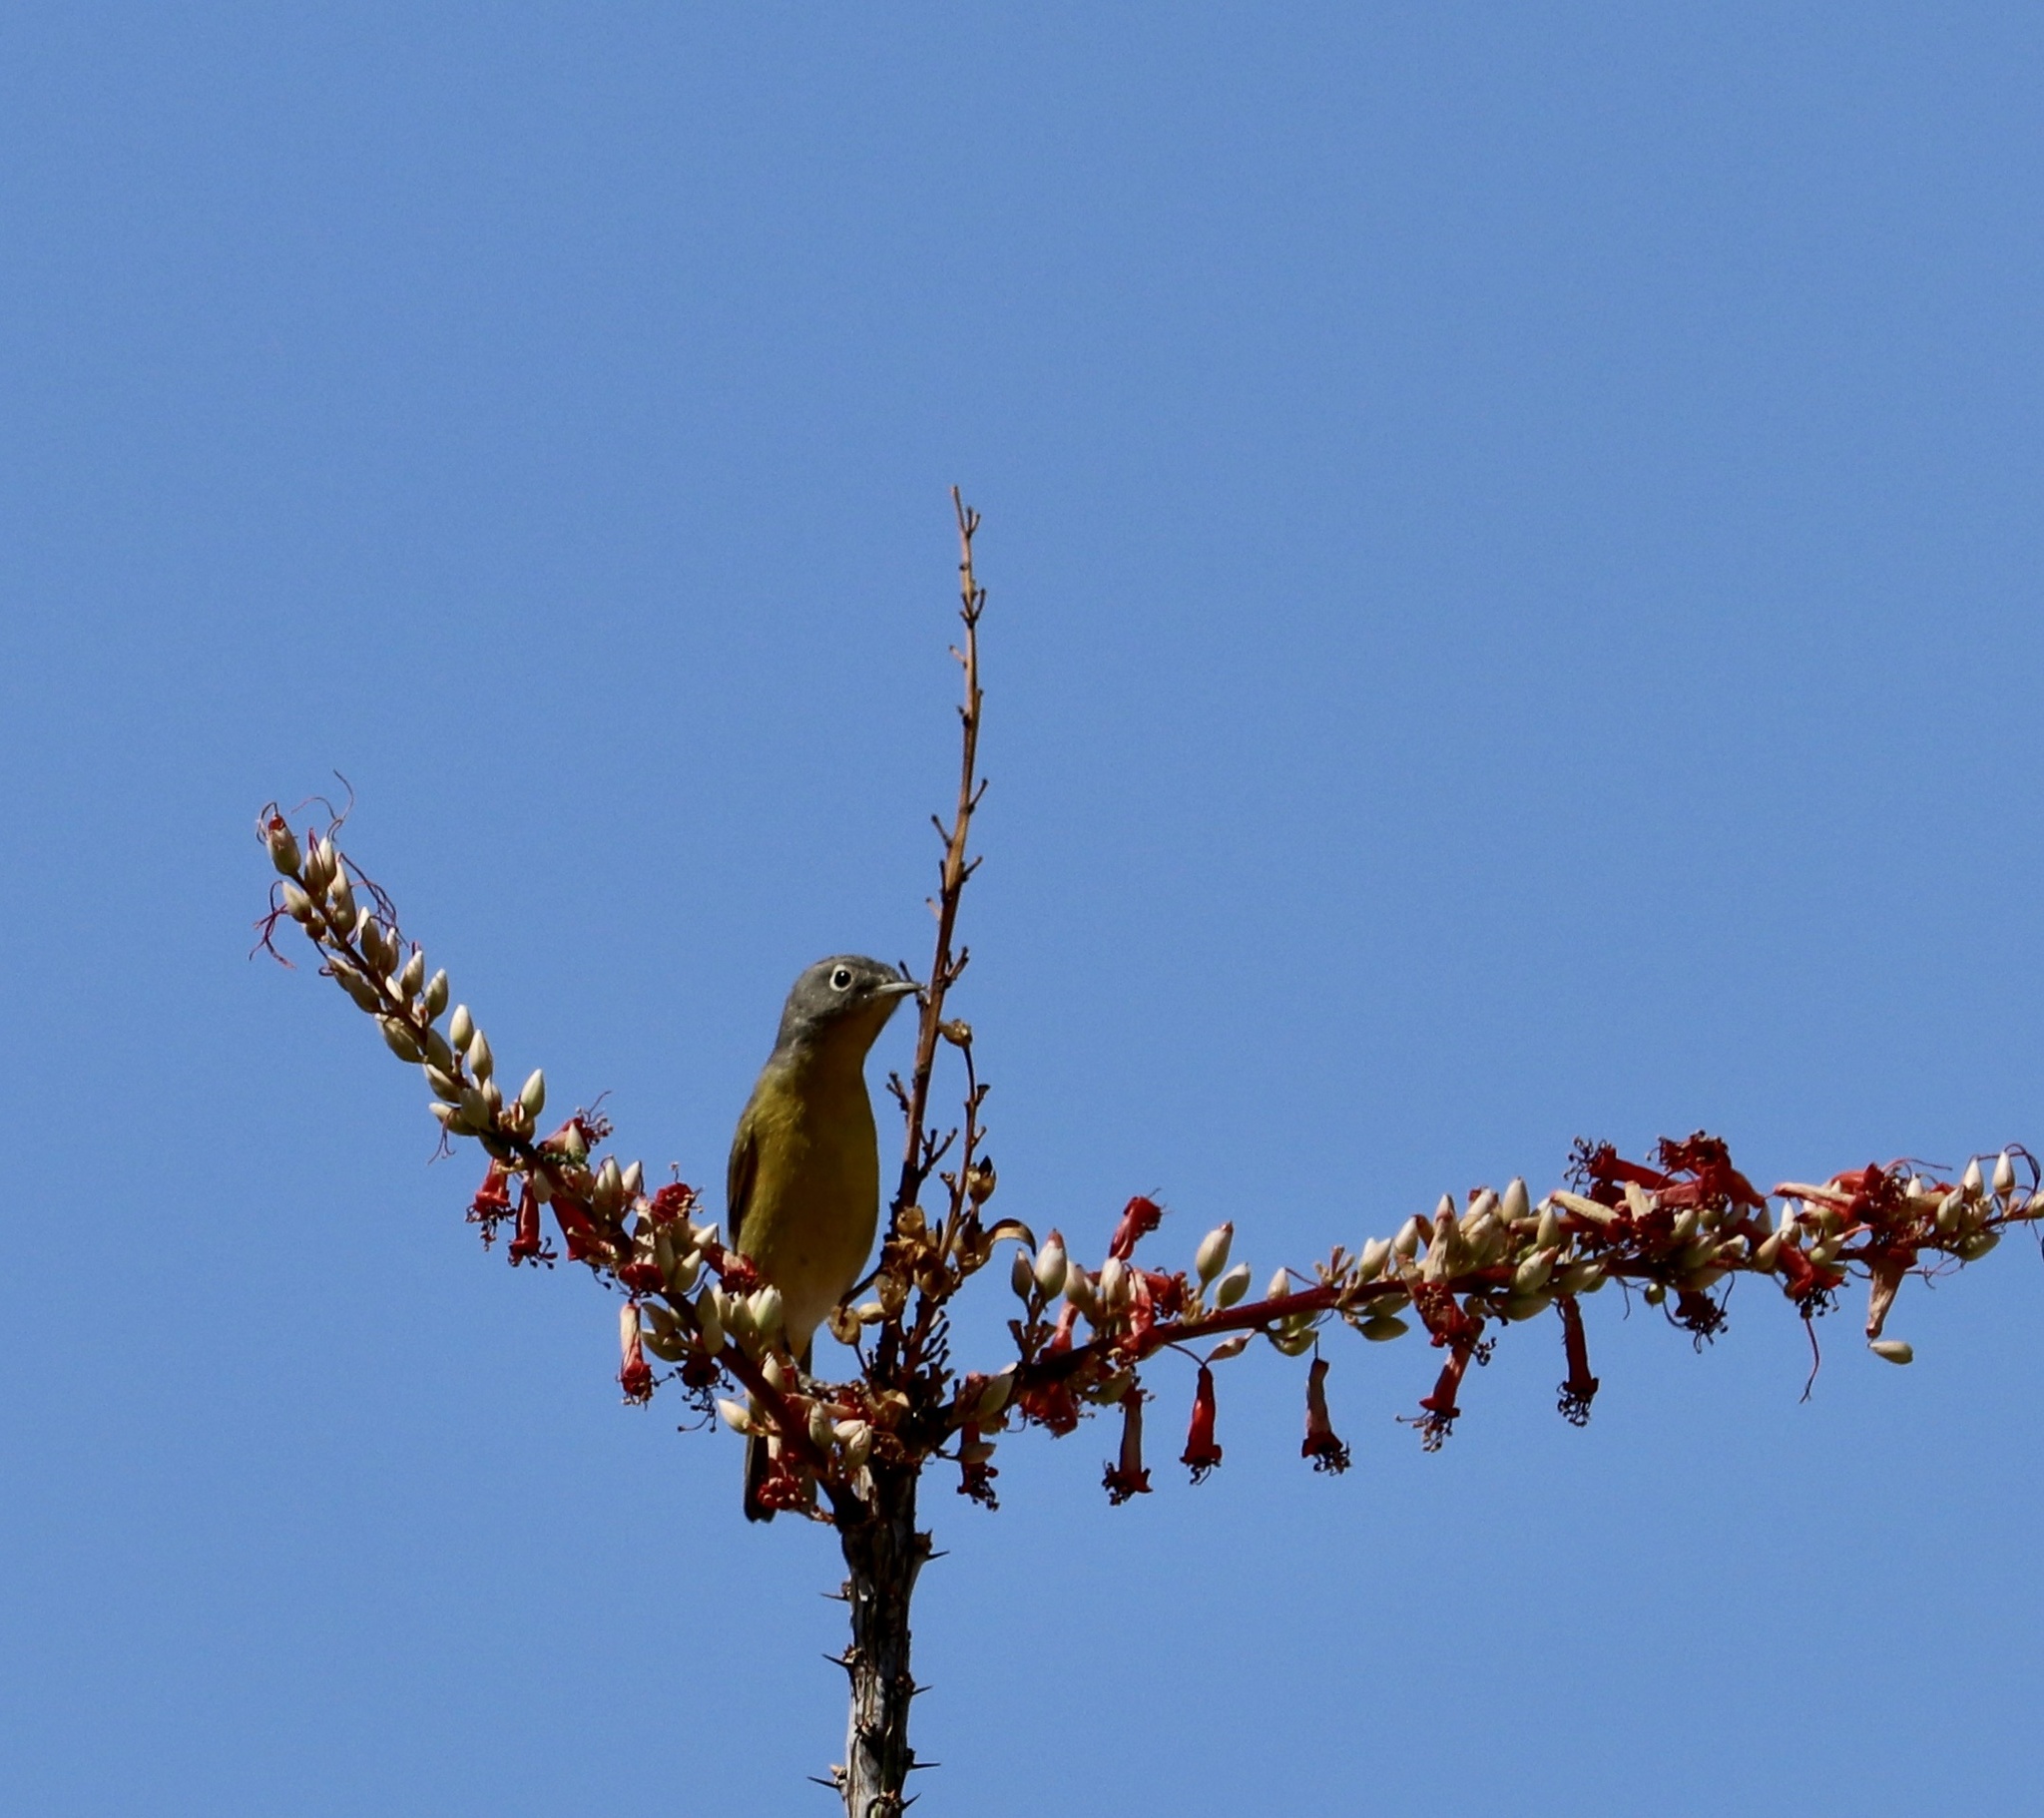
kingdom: Animalia
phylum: Chordata
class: Aves
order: Passeriformes
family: Parulidae
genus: Leiothlypis
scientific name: Leiothlypis ruficapilla
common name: Nashville warbler
